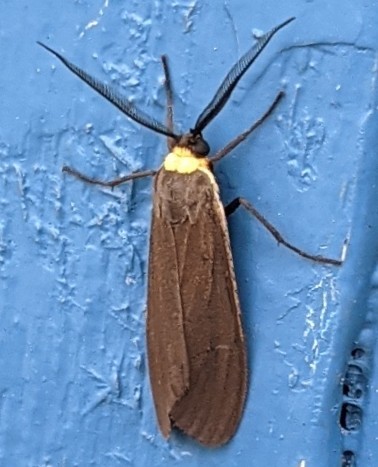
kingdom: Animalia
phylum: Arthropoda
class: Insecta
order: Lepidoptera
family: Erebidae
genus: Cisseps
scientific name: Cisseps fulvicollis
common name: Yellow-collared scape moth
